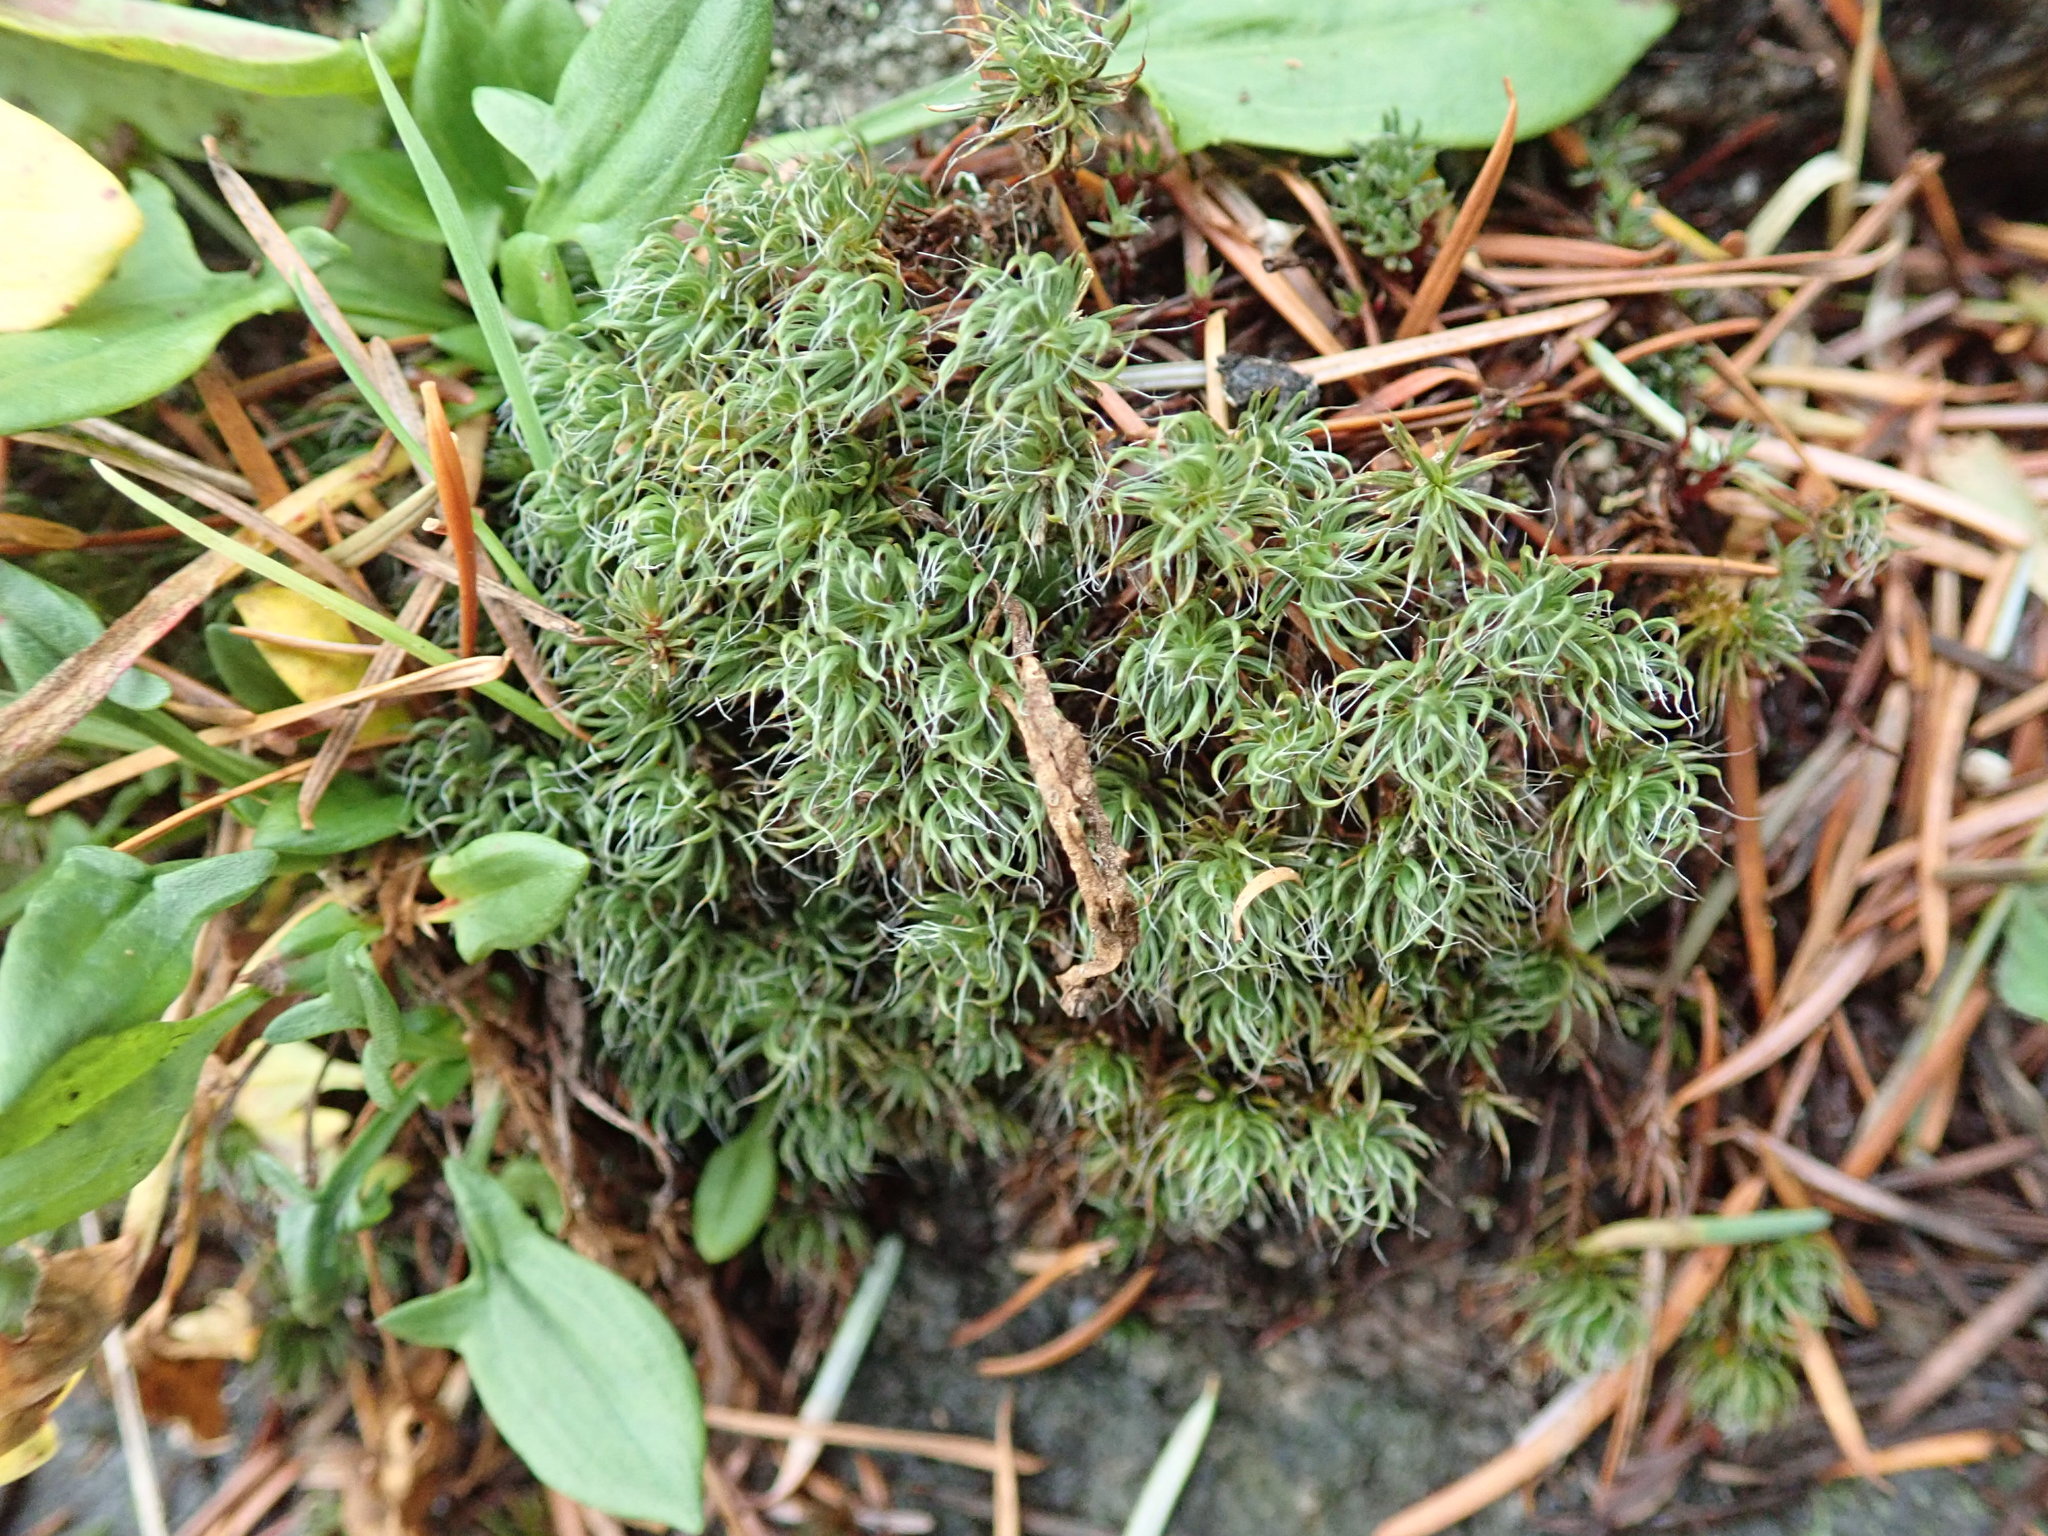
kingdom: Plantae
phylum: Bryophyta
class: Polytrichopsida
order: Polytrichales
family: Polytrichaceae
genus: Polytrichum
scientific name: Polytrichum piliferum
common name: Bristly haircap
